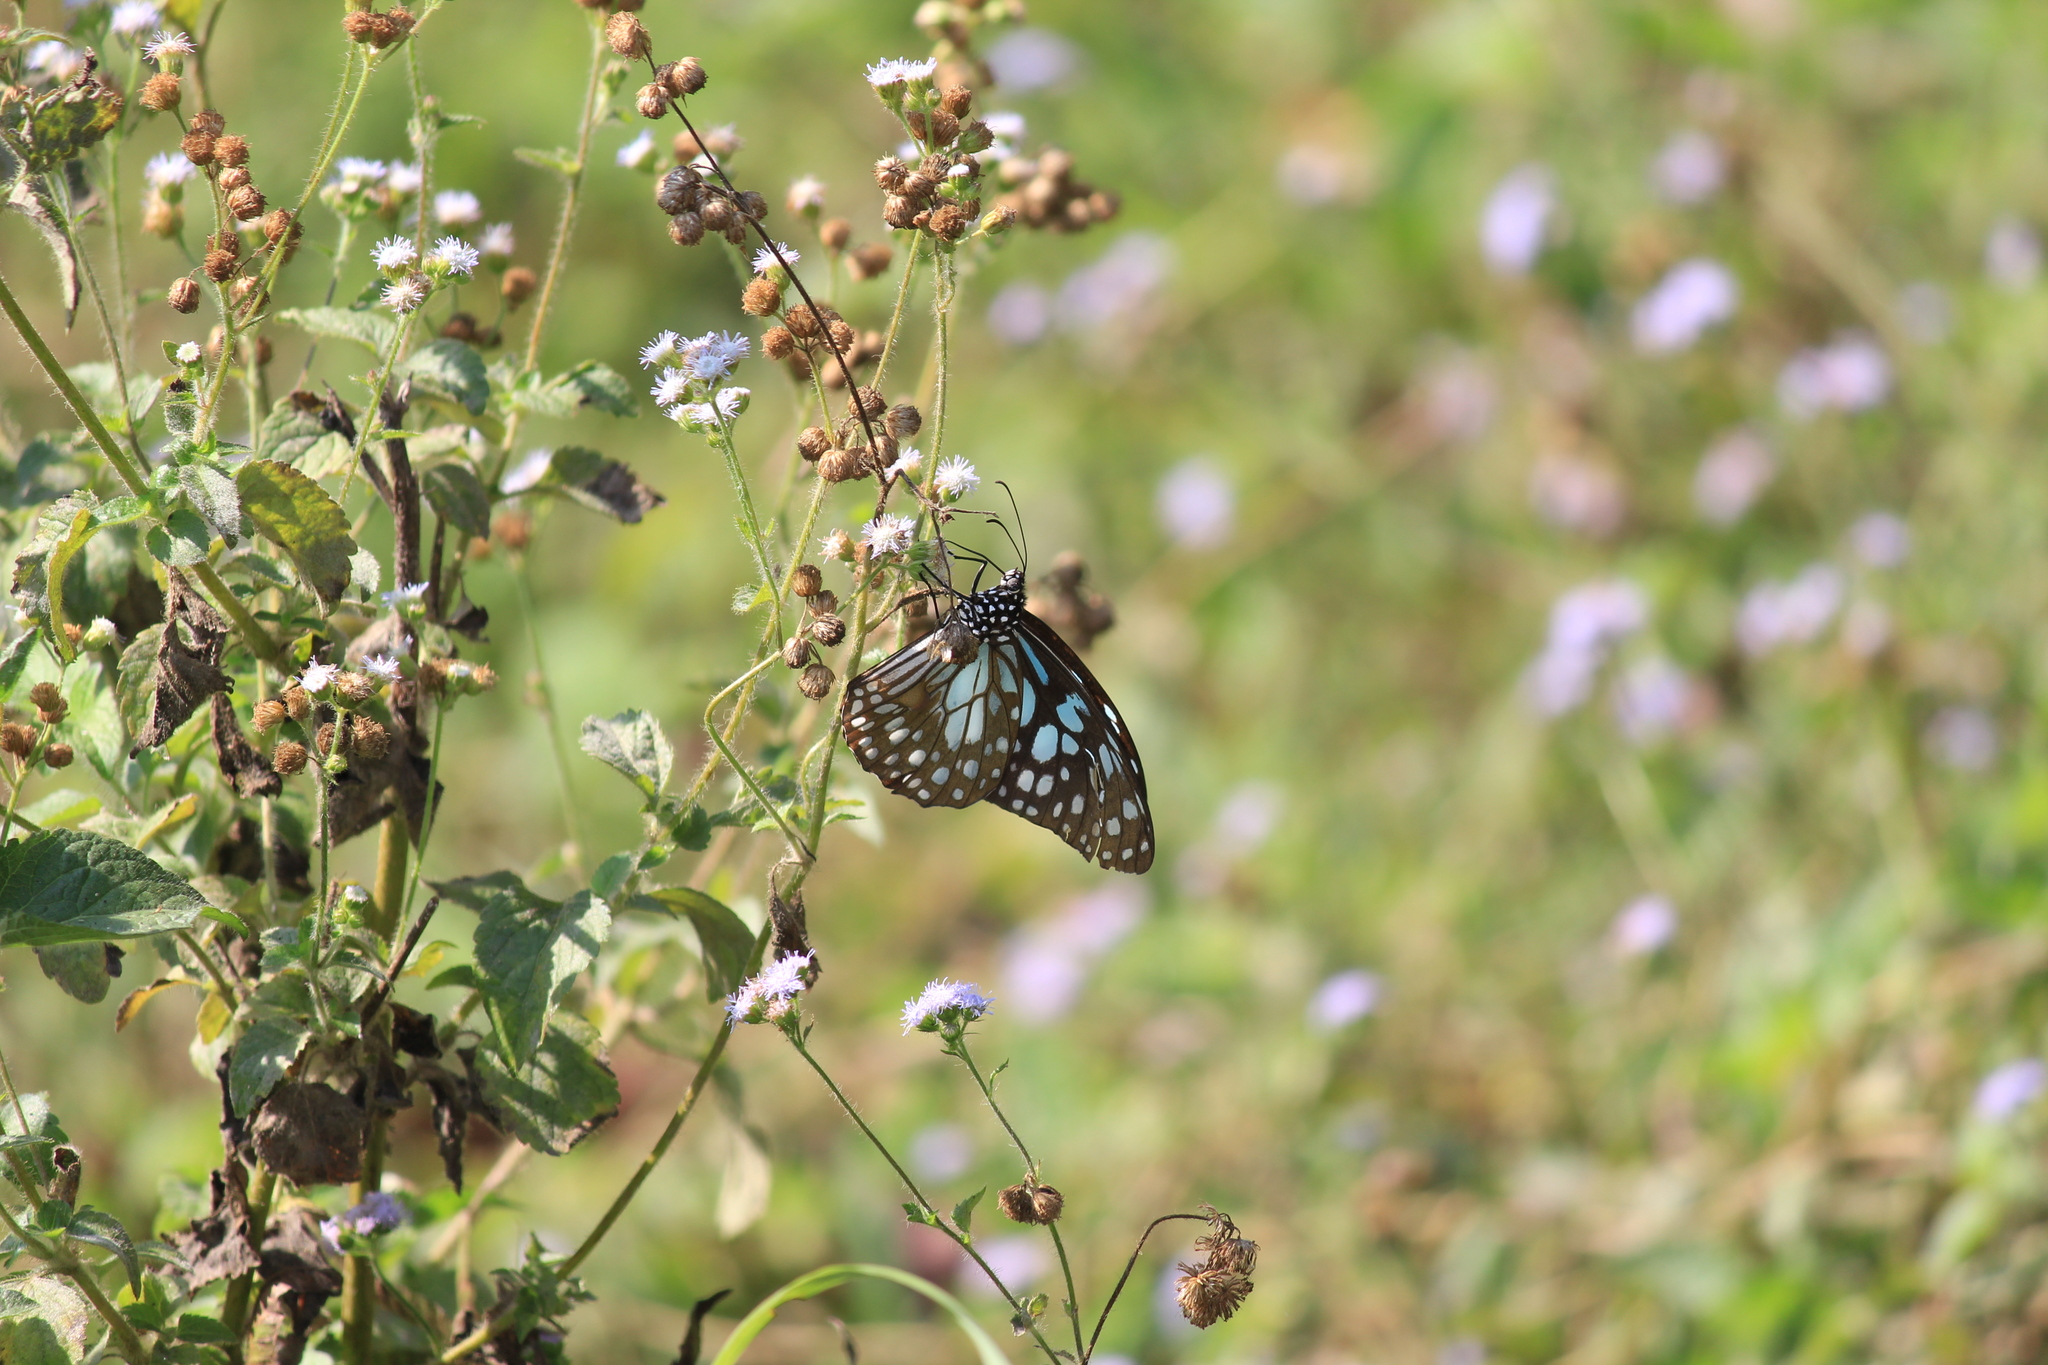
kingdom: Animalia
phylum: Arthropoda
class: Insecta
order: Lepidoptera
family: Nymphalidae
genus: Tirumala
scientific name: Tirumala limniace
